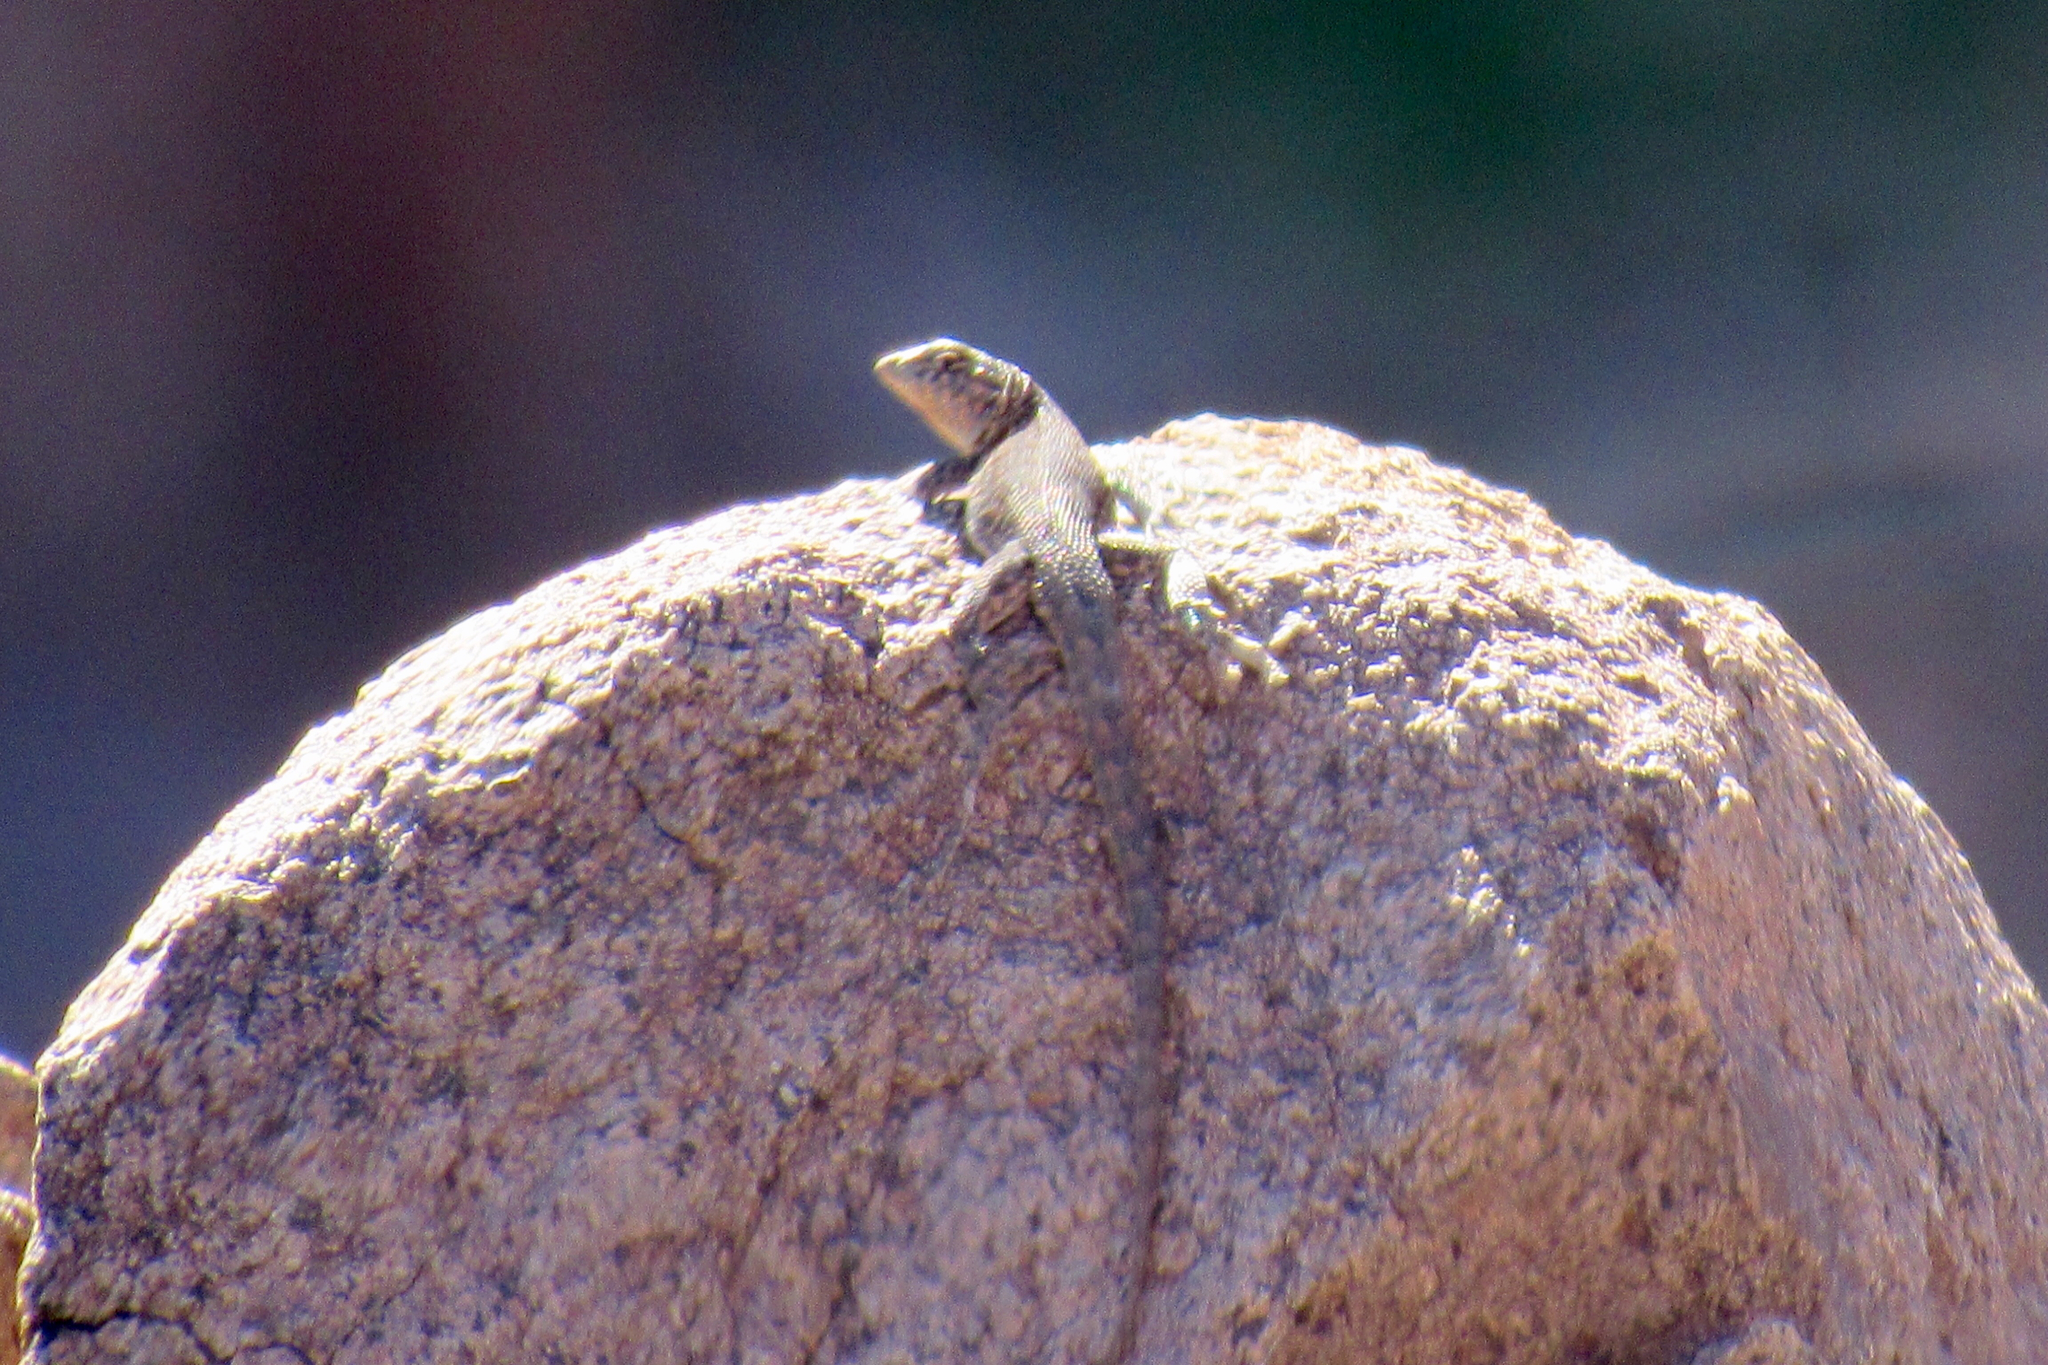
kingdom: Animalia
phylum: Chordata
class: Squamata
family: Phrynosomatidae
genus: Uta
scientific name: Uta stansburiana
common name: Side-blotched lizard
